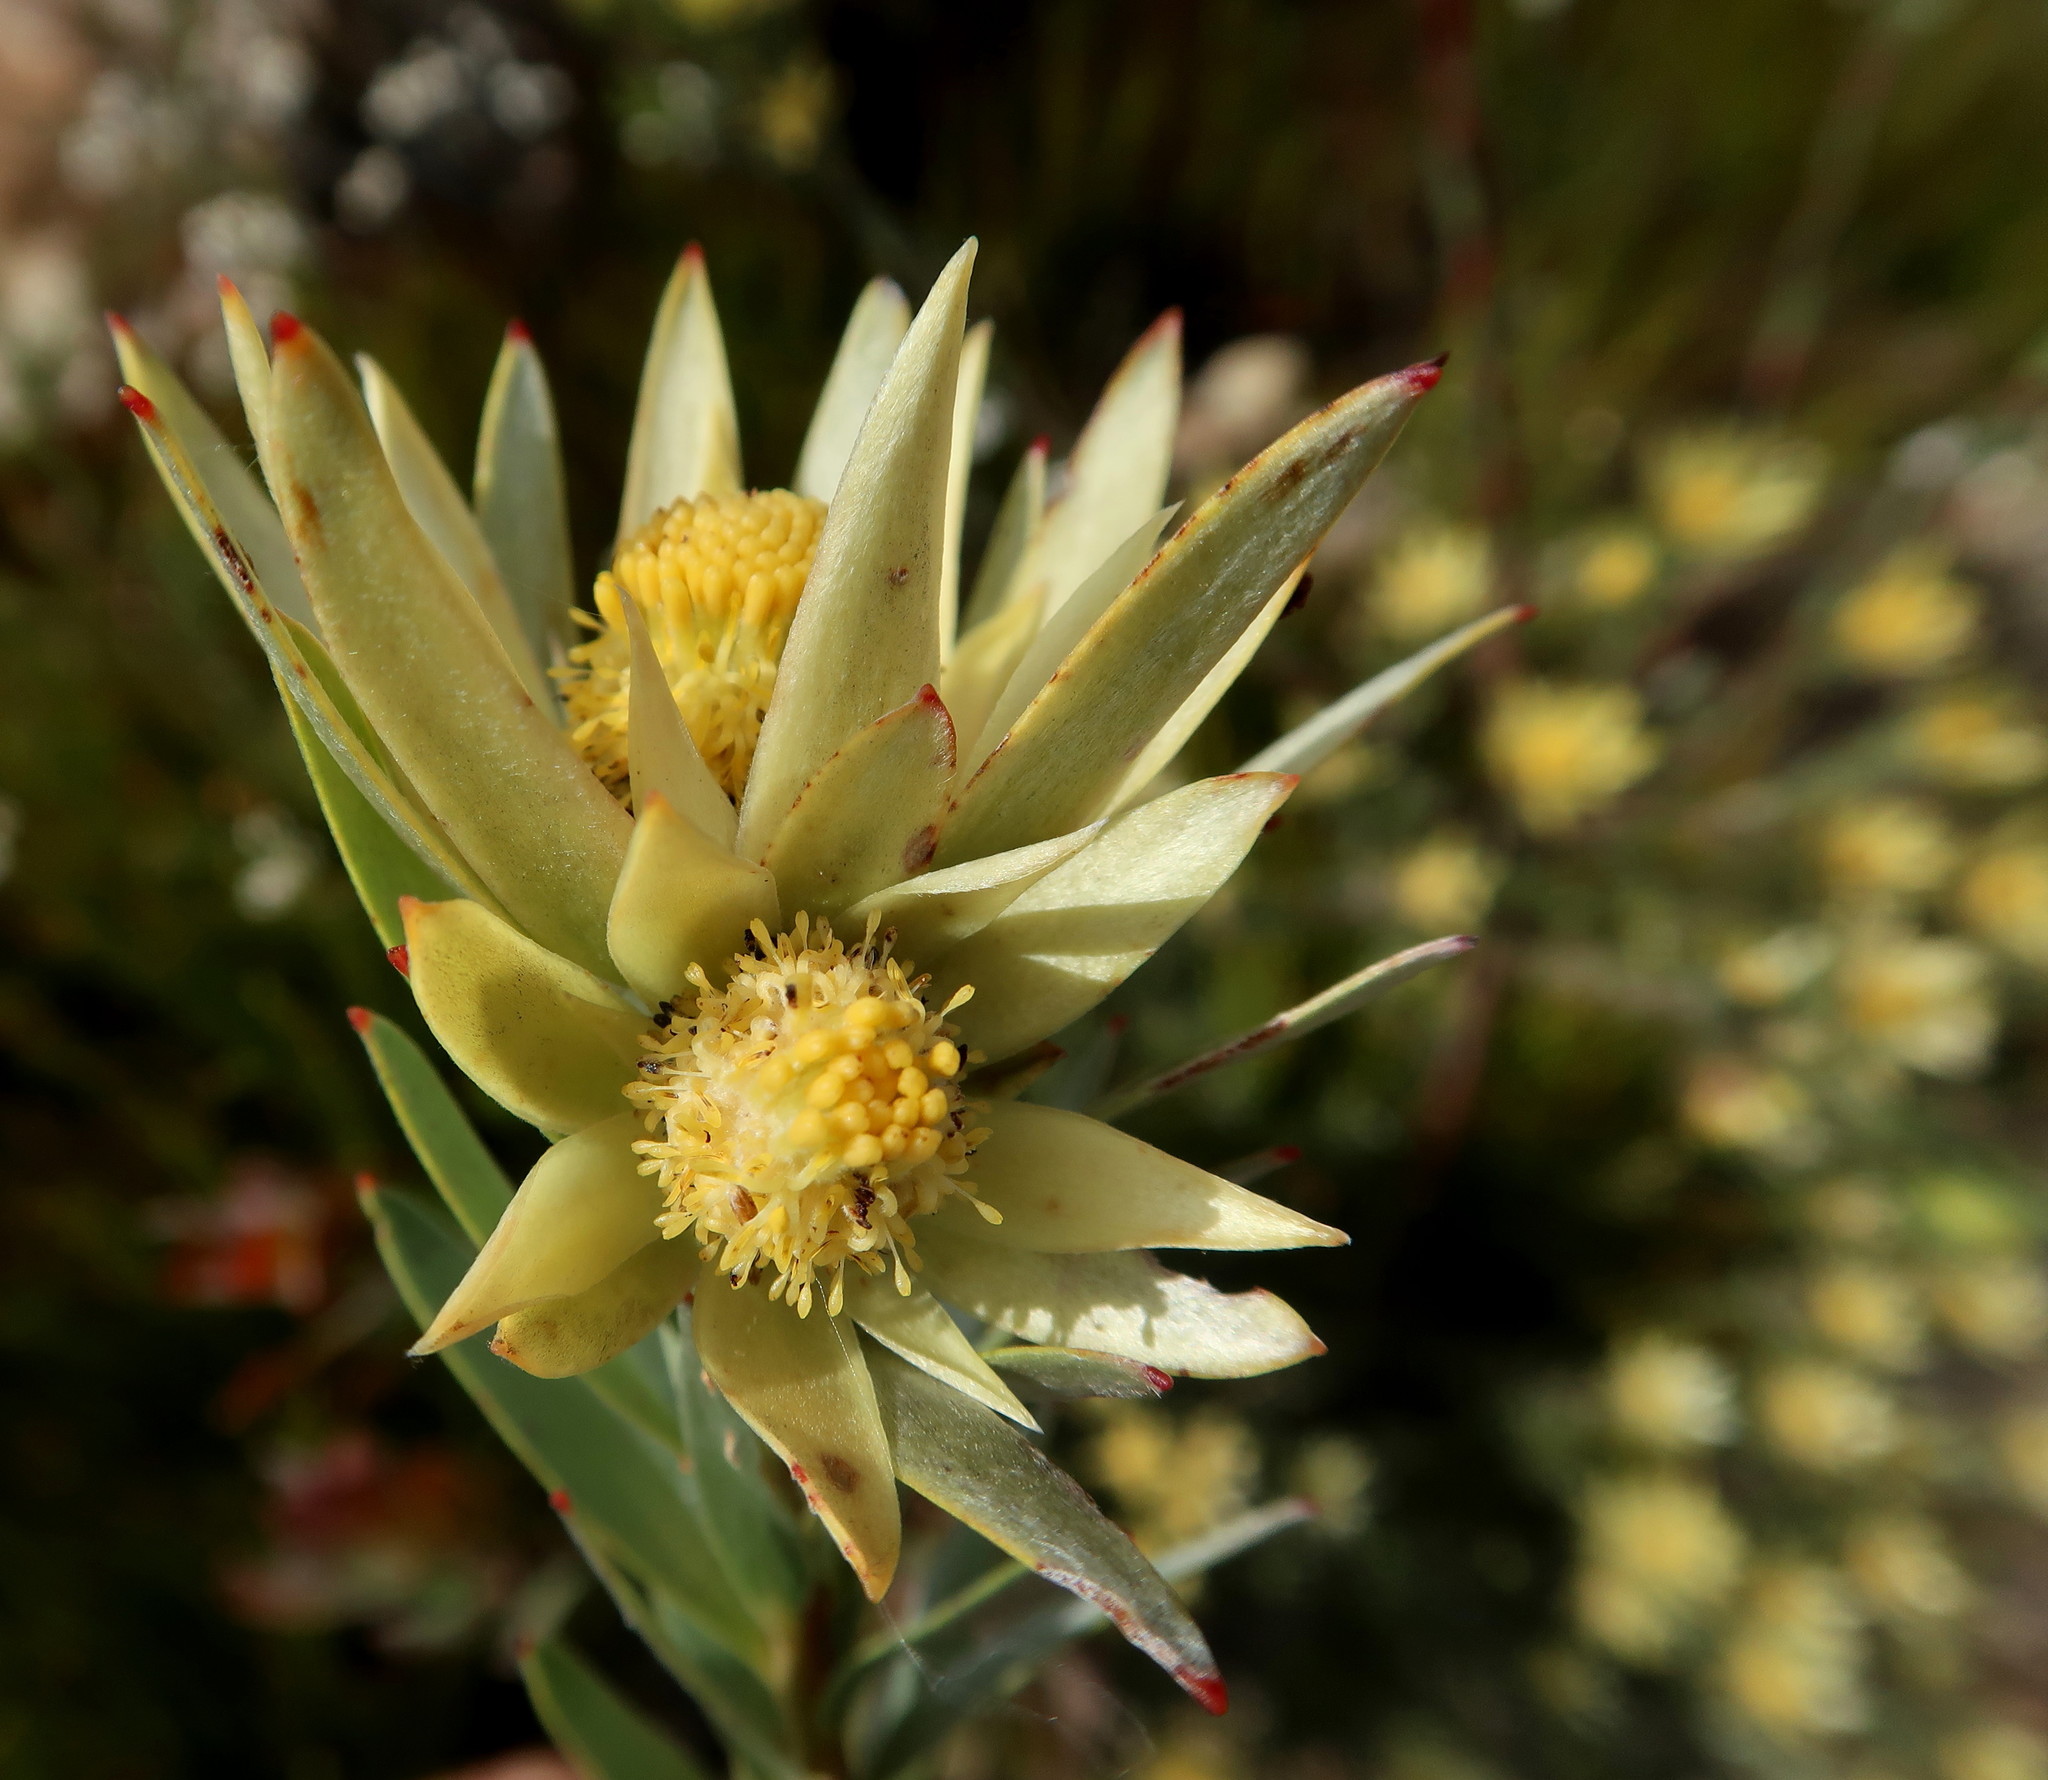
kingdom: Plantae
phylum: Tracheophyta
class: Magnoliopsida
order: Proteales
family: Proteaceae
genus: Leucadendron
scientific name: Leucadendron uliginosum
